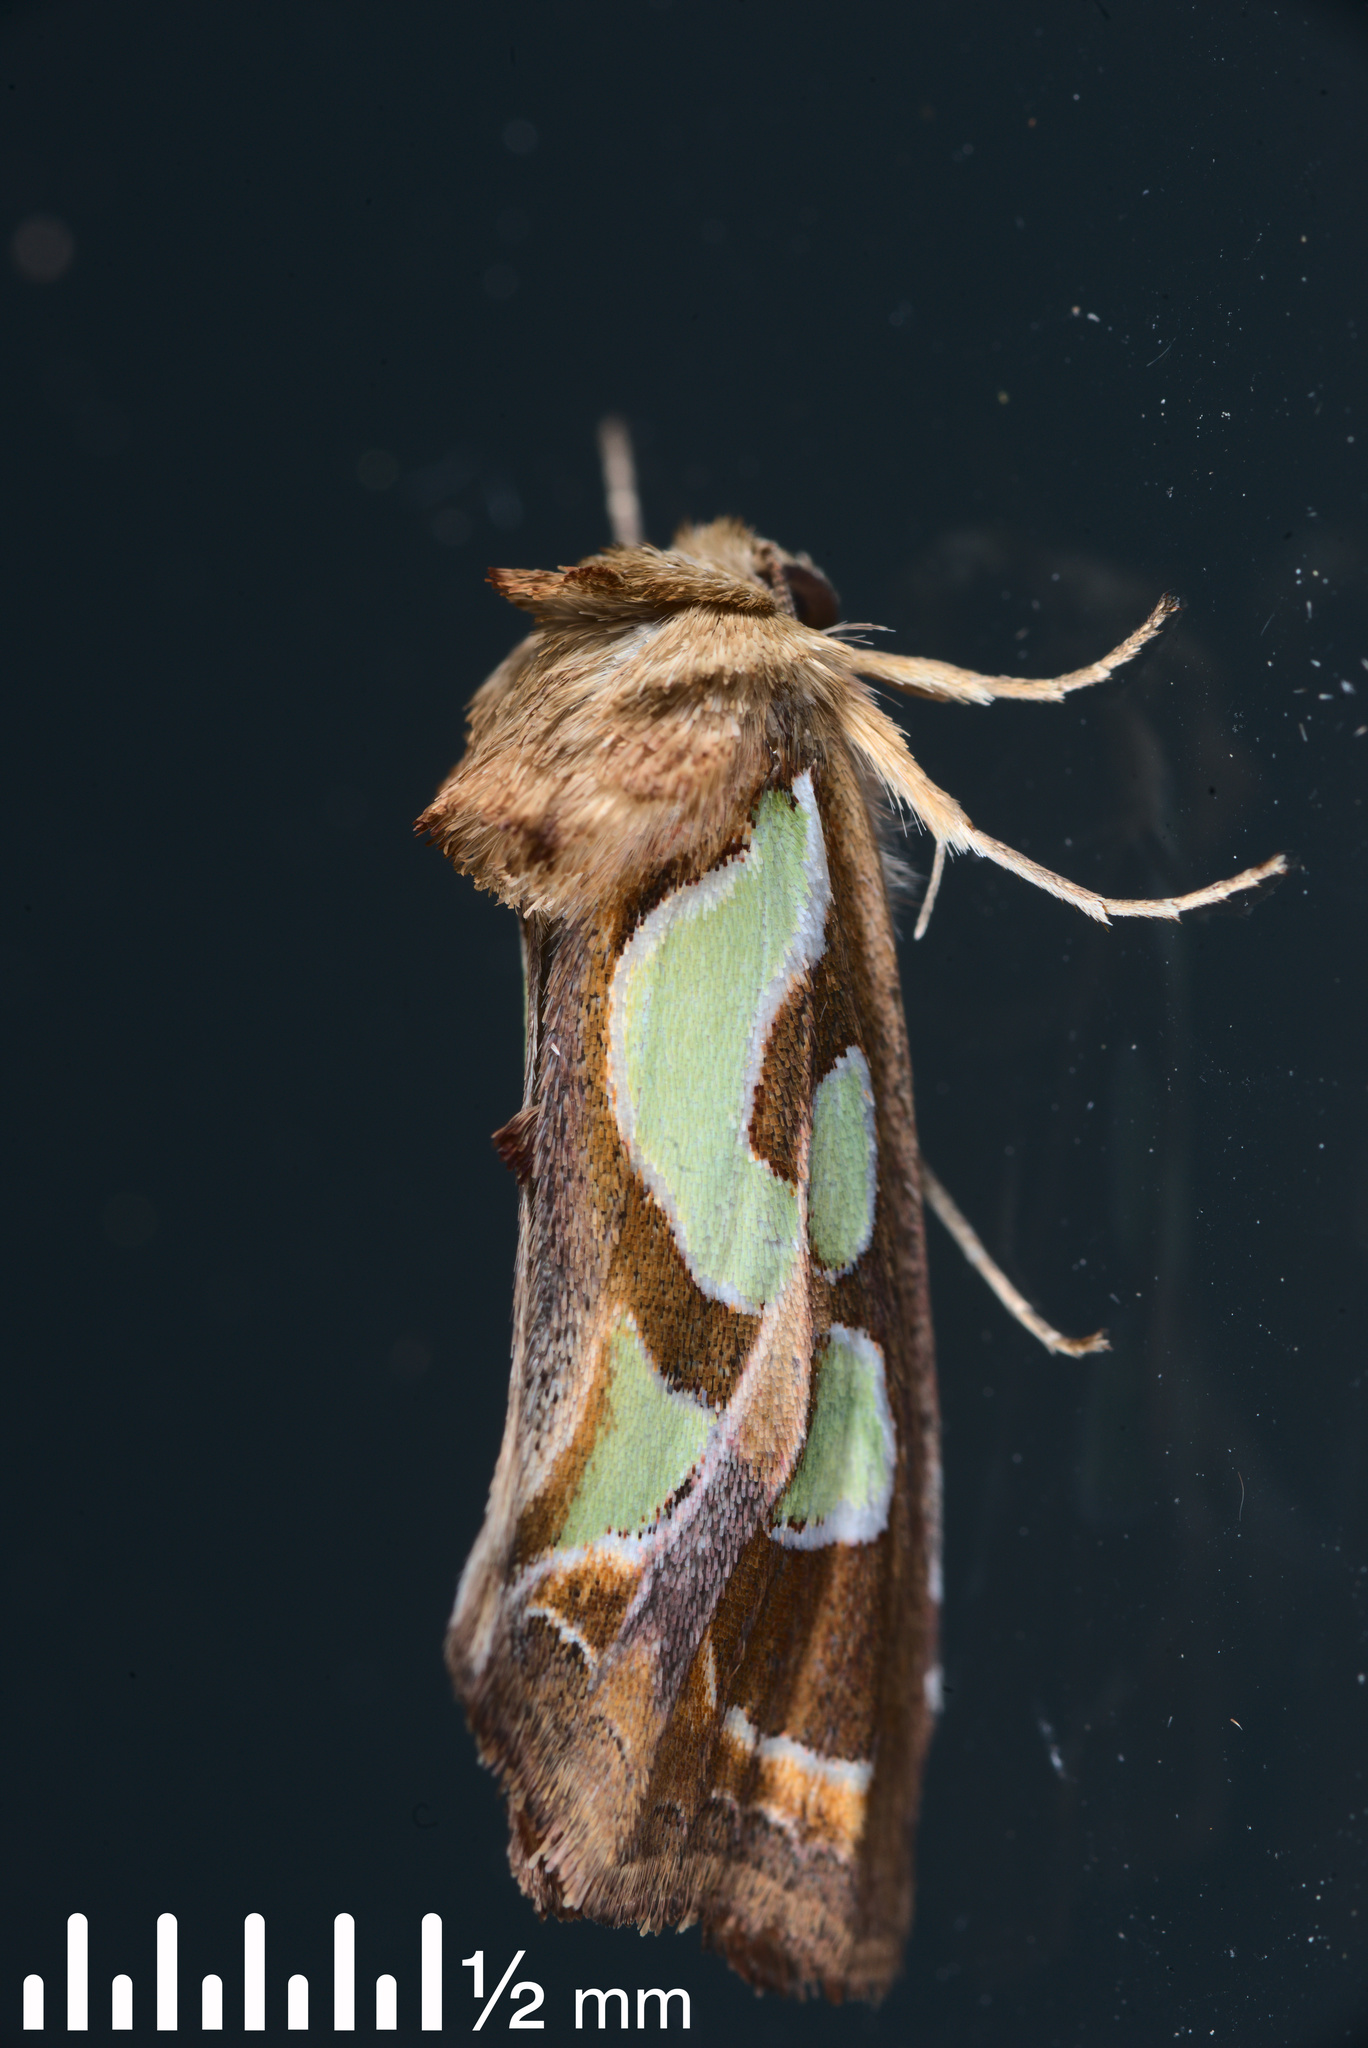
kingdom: Animalia
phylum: Arthropoda
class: Insecta
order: Lepidoptera
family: Noctuidae
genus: Cosmodes
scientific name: Cosmodes elegans
